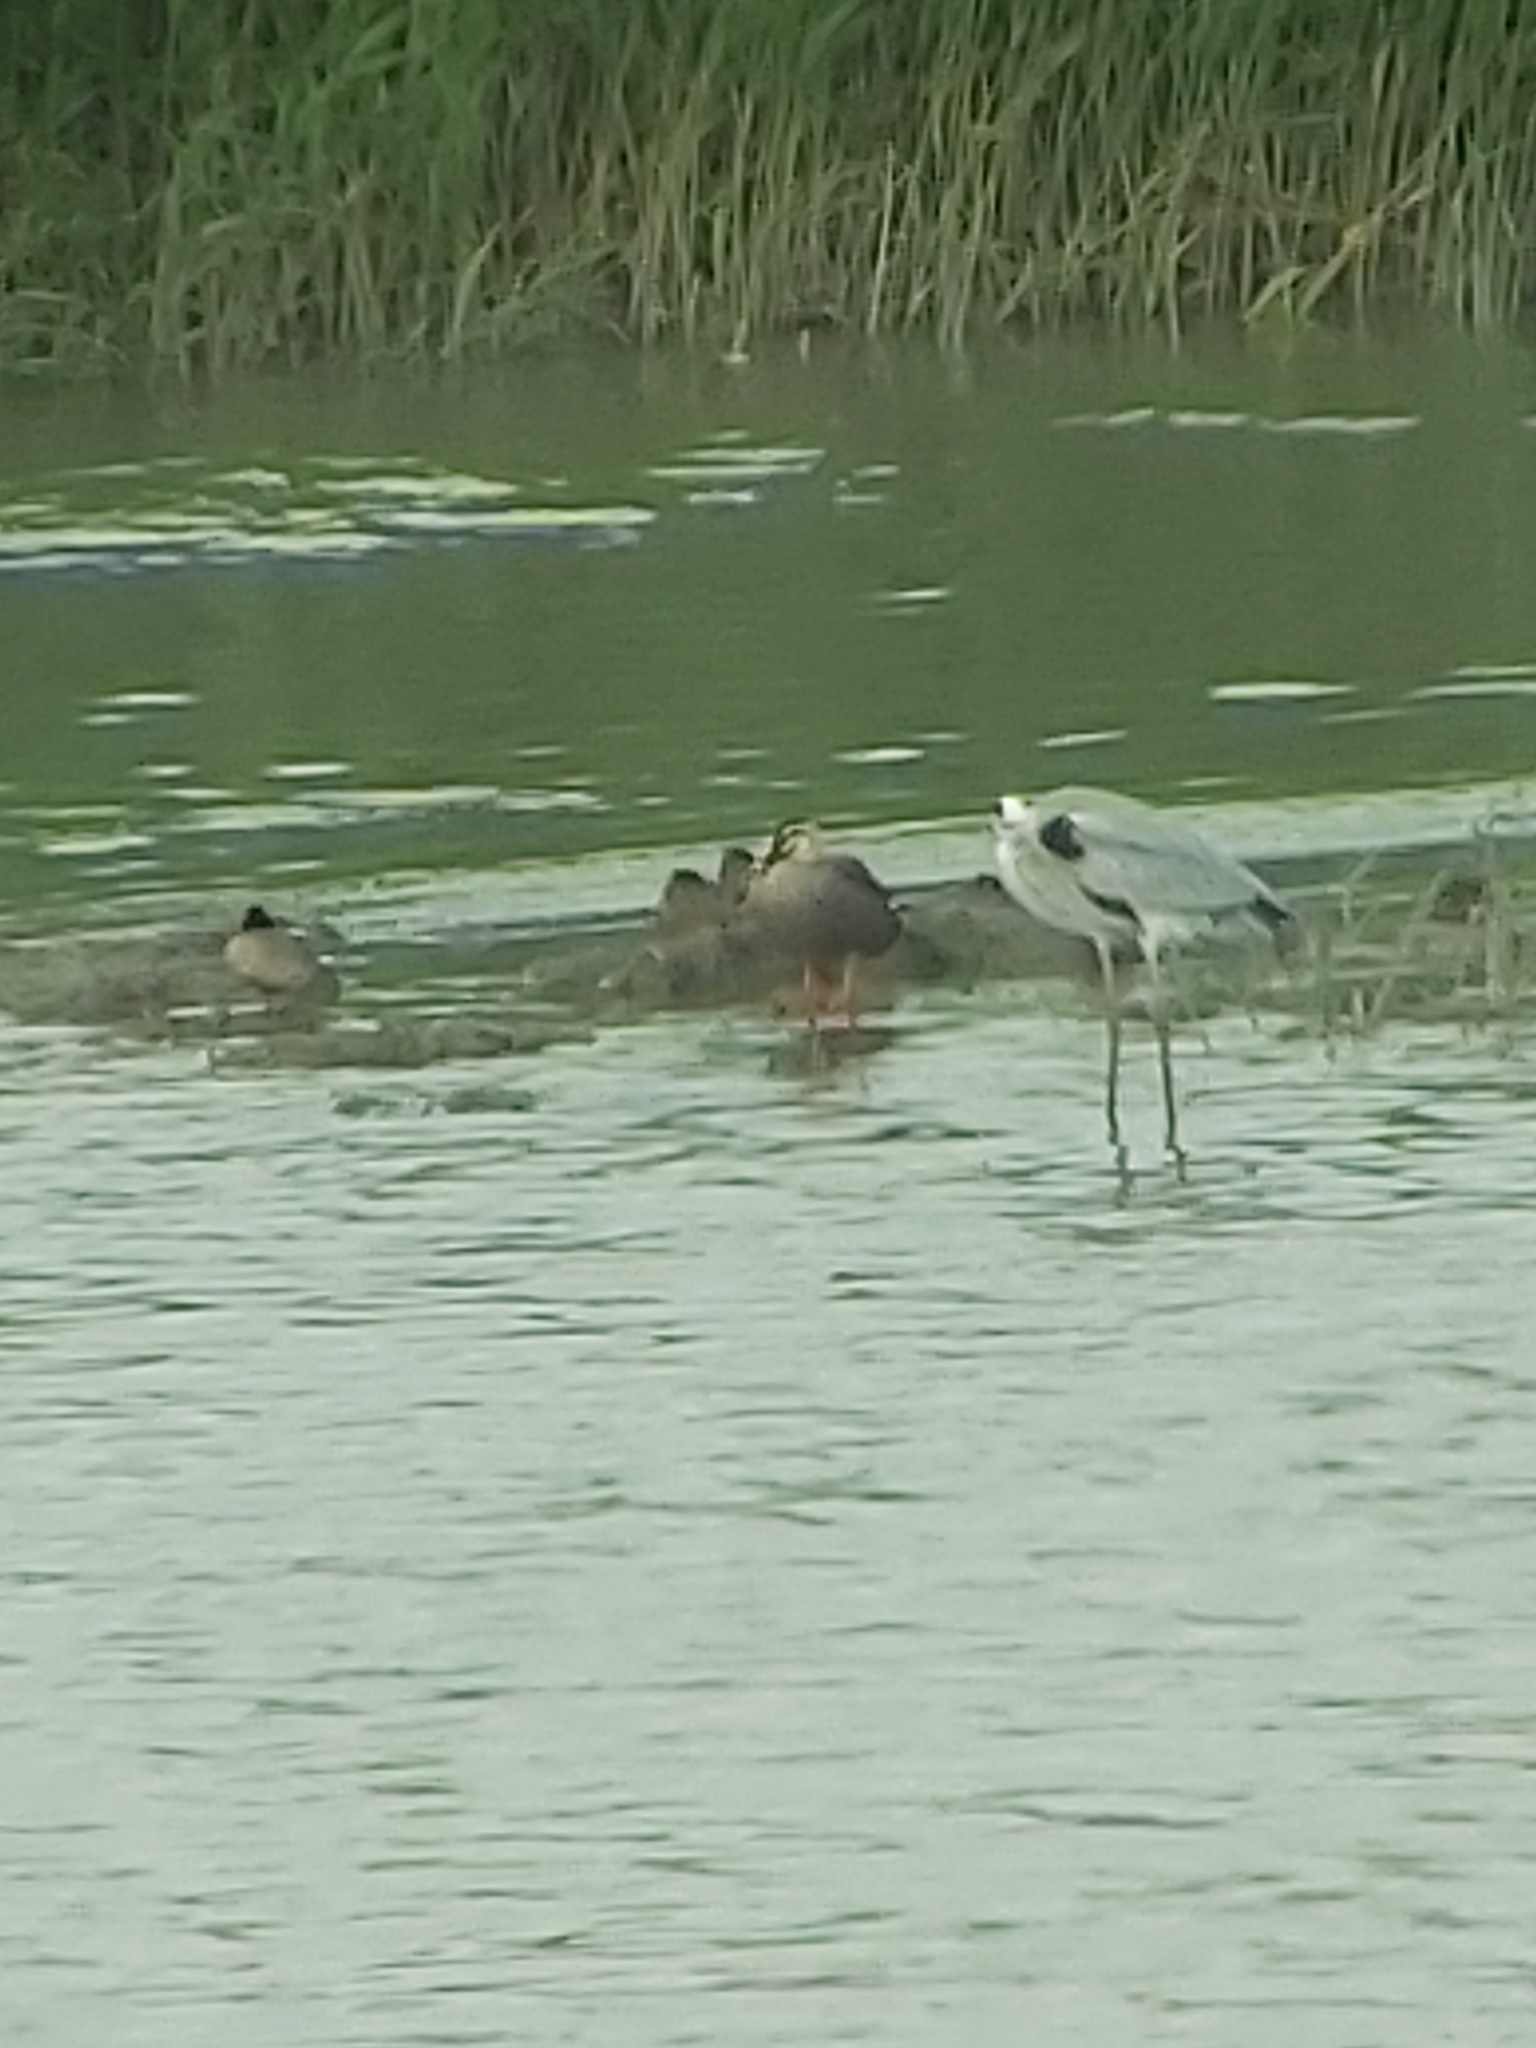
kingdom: Animalia
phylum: Chordata
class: Aves
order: Pelecaniformes
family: Ardeidae
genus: Ardea
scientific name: Ardea cinerea
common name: Grey heron
